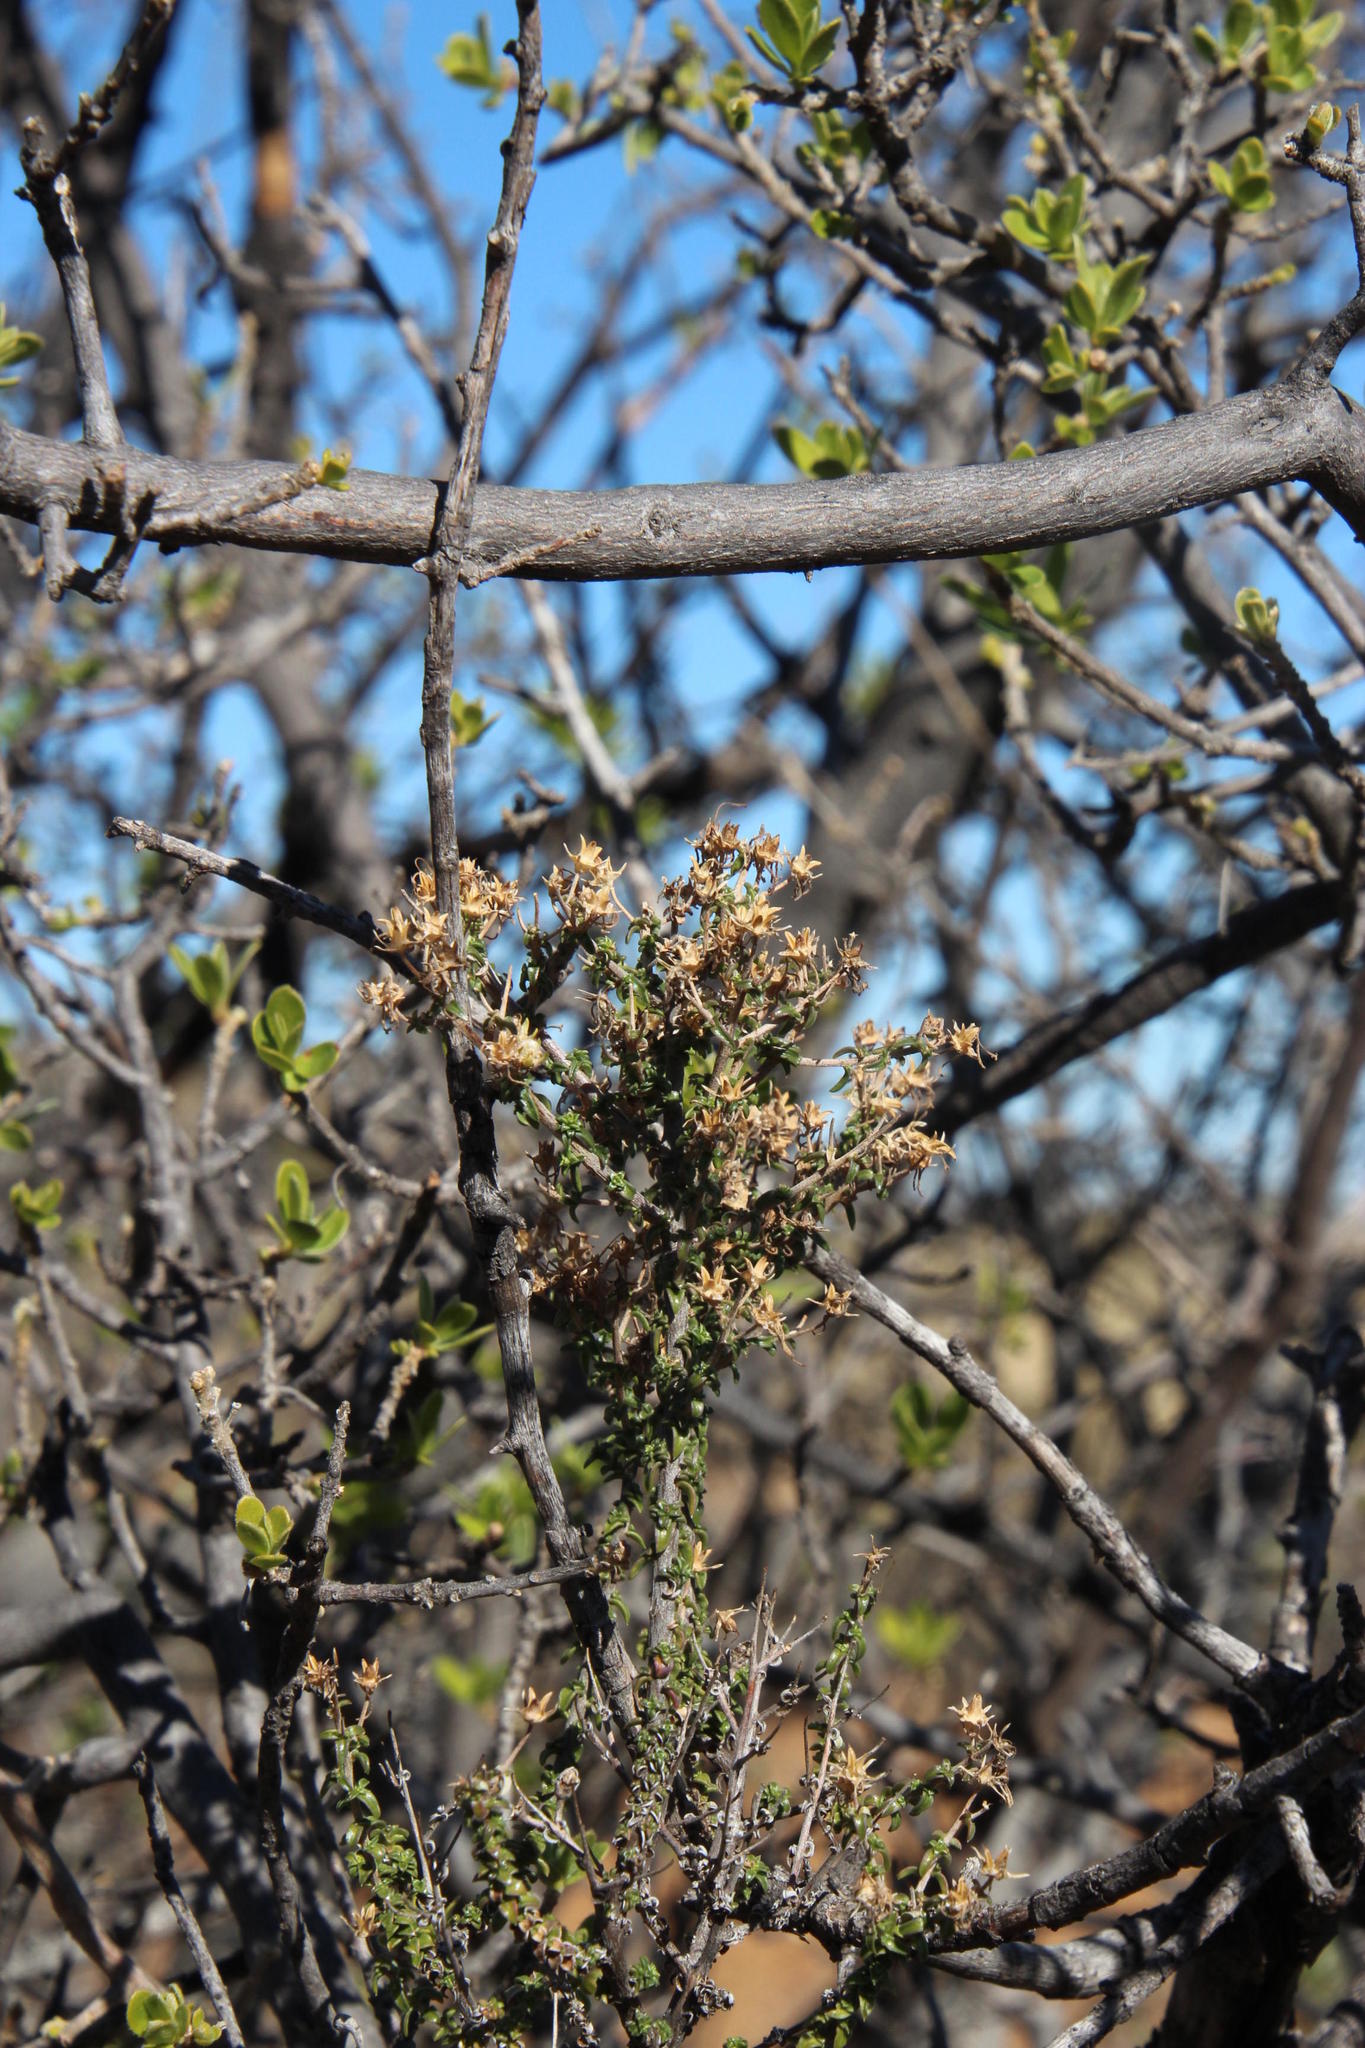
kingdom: Plantae
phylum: Tracheophyta
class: Magnoliopsida
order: Ericales
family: Ebenaceae
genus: Diospyros
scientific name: Diospyros pubescens
